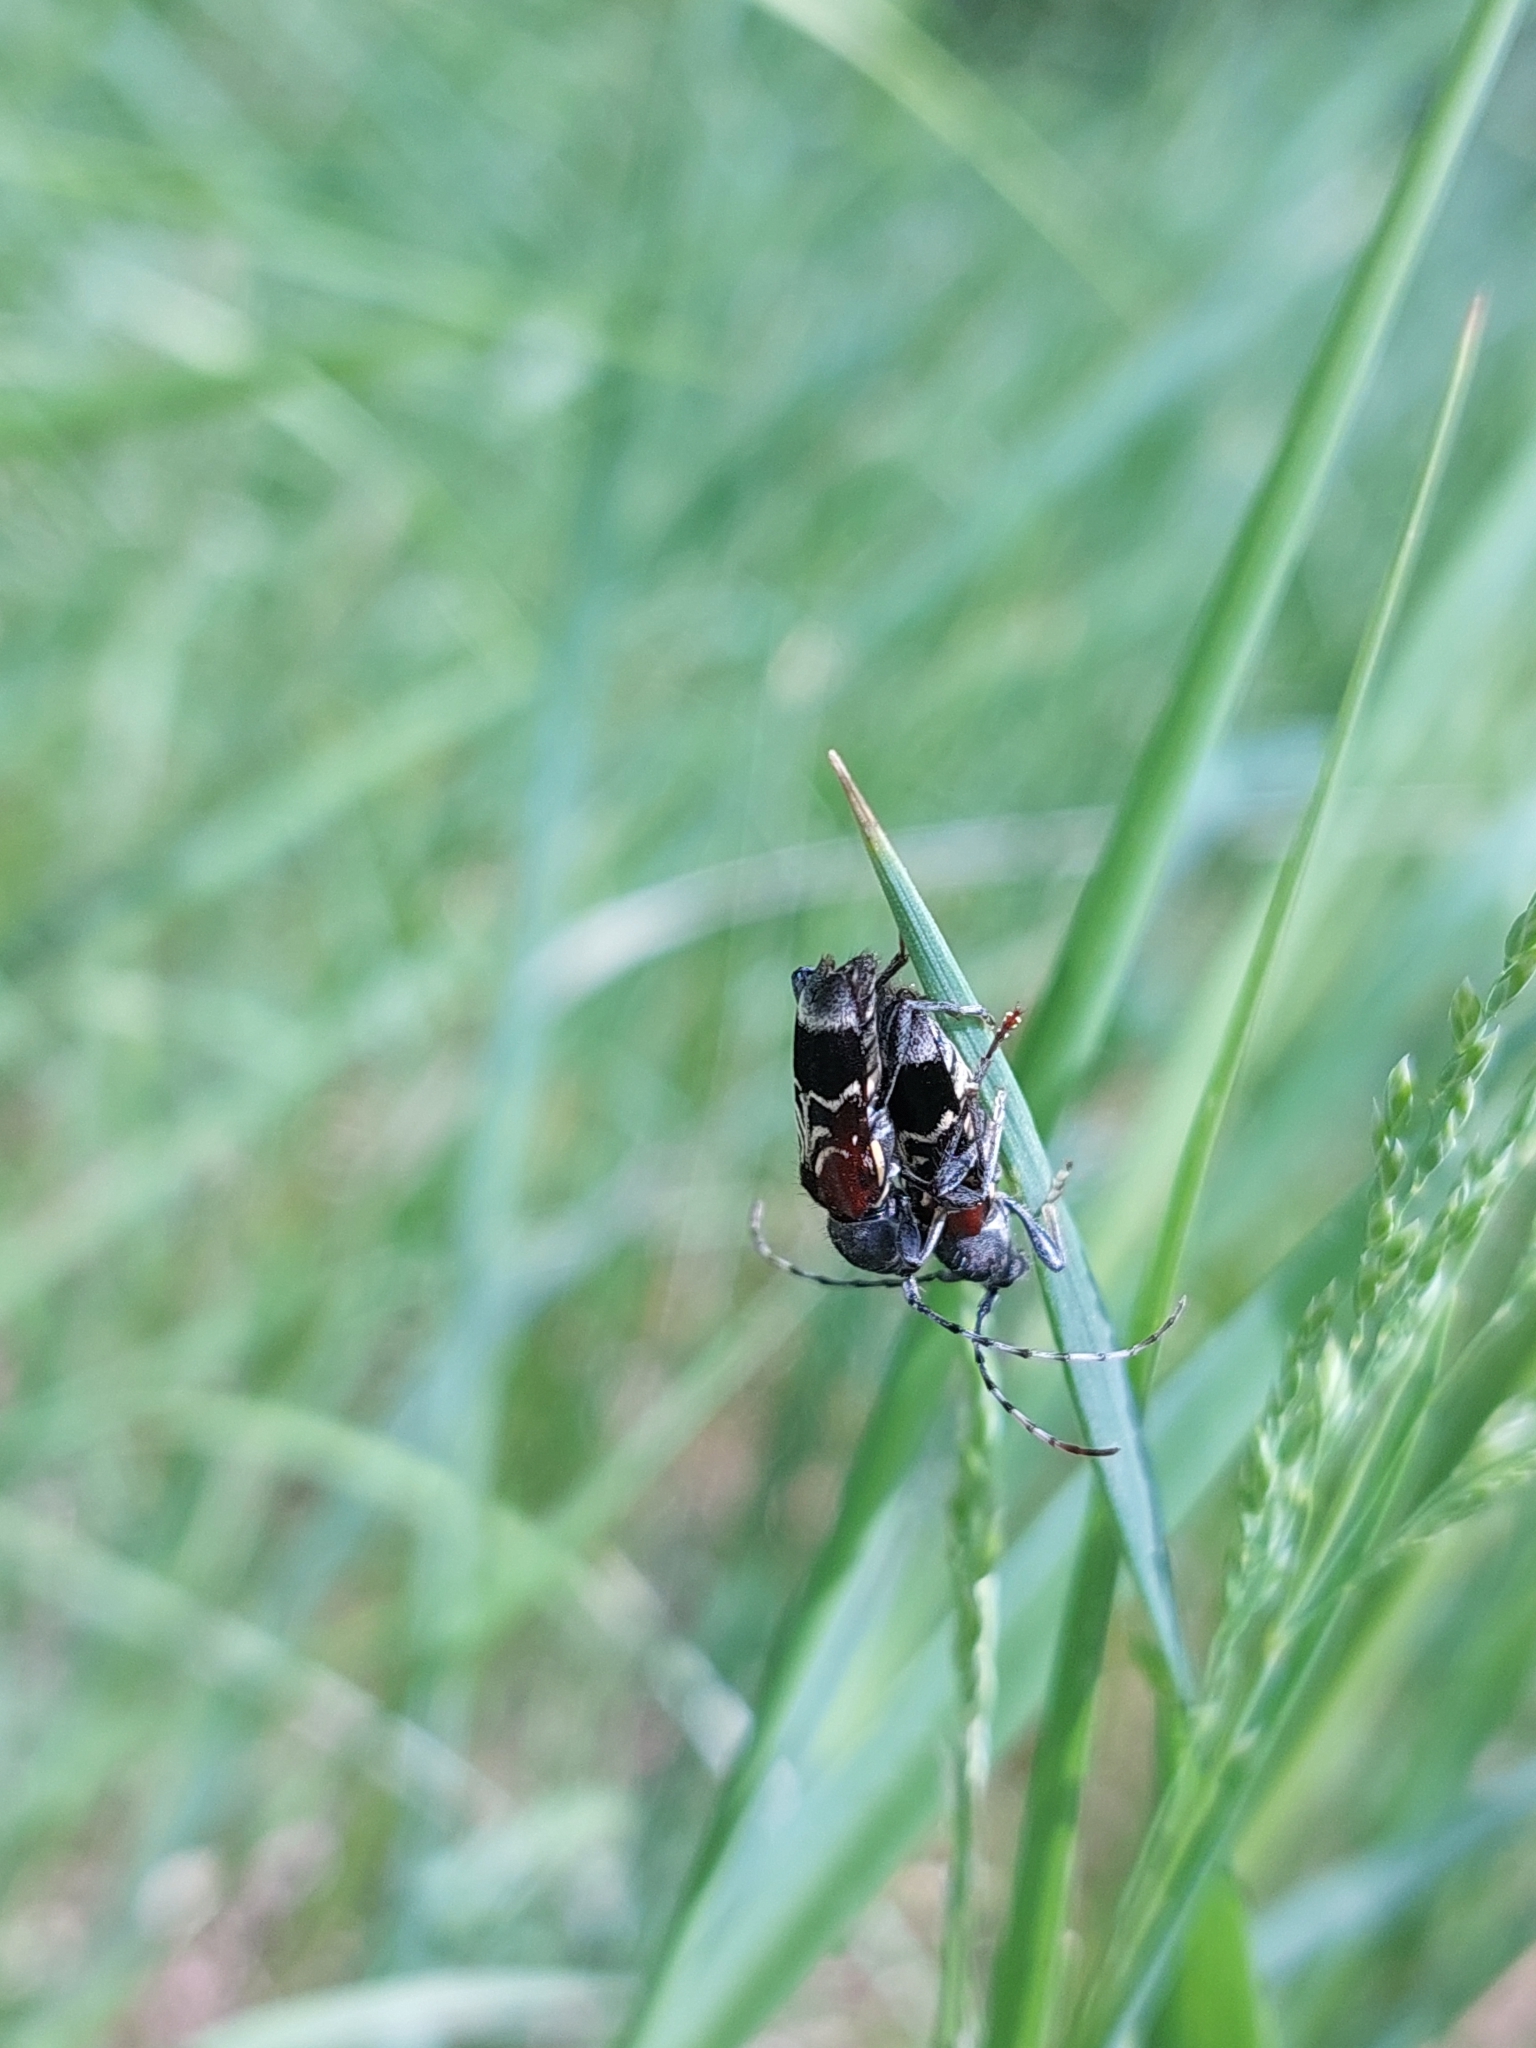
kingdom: Animalia
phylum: Arthropoda
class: Insecta
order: Coleoptera
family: Cerambycidae
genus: Anaglyptus
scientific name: Anaglyptus mysticus
